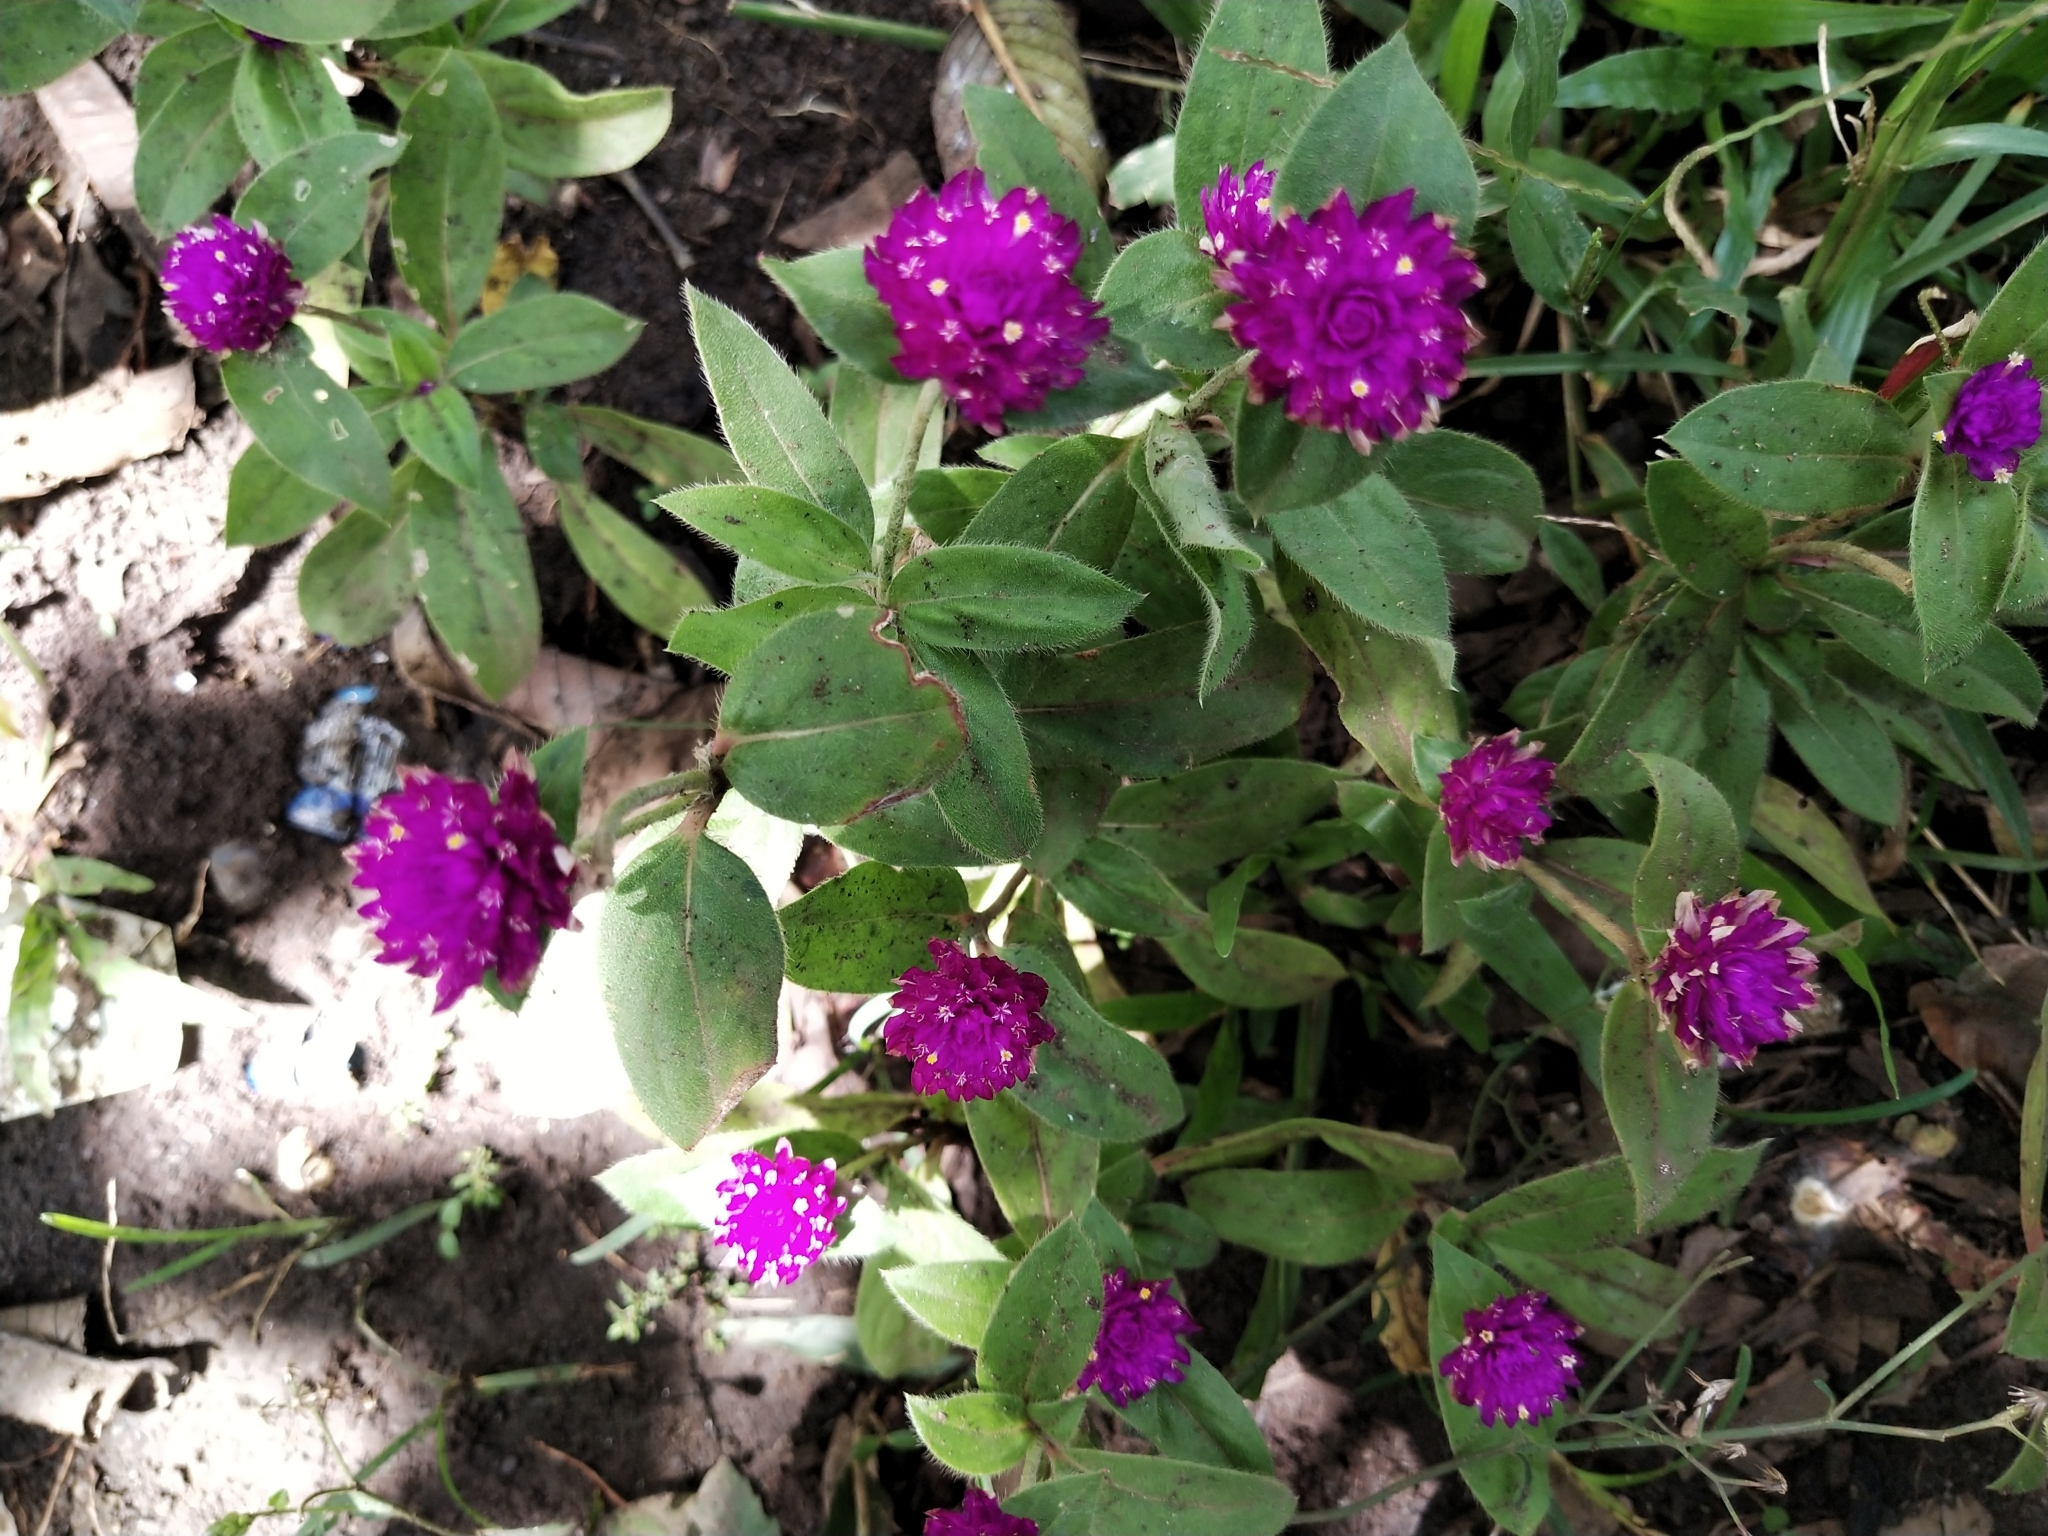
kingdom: Plantae
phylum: Tracheophyta
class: Magnoliopsida
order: Caryophyllales
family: Amaranthaceae
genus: Gomphrena
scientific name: Gomphrena globosa
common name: Common globe amaranth
